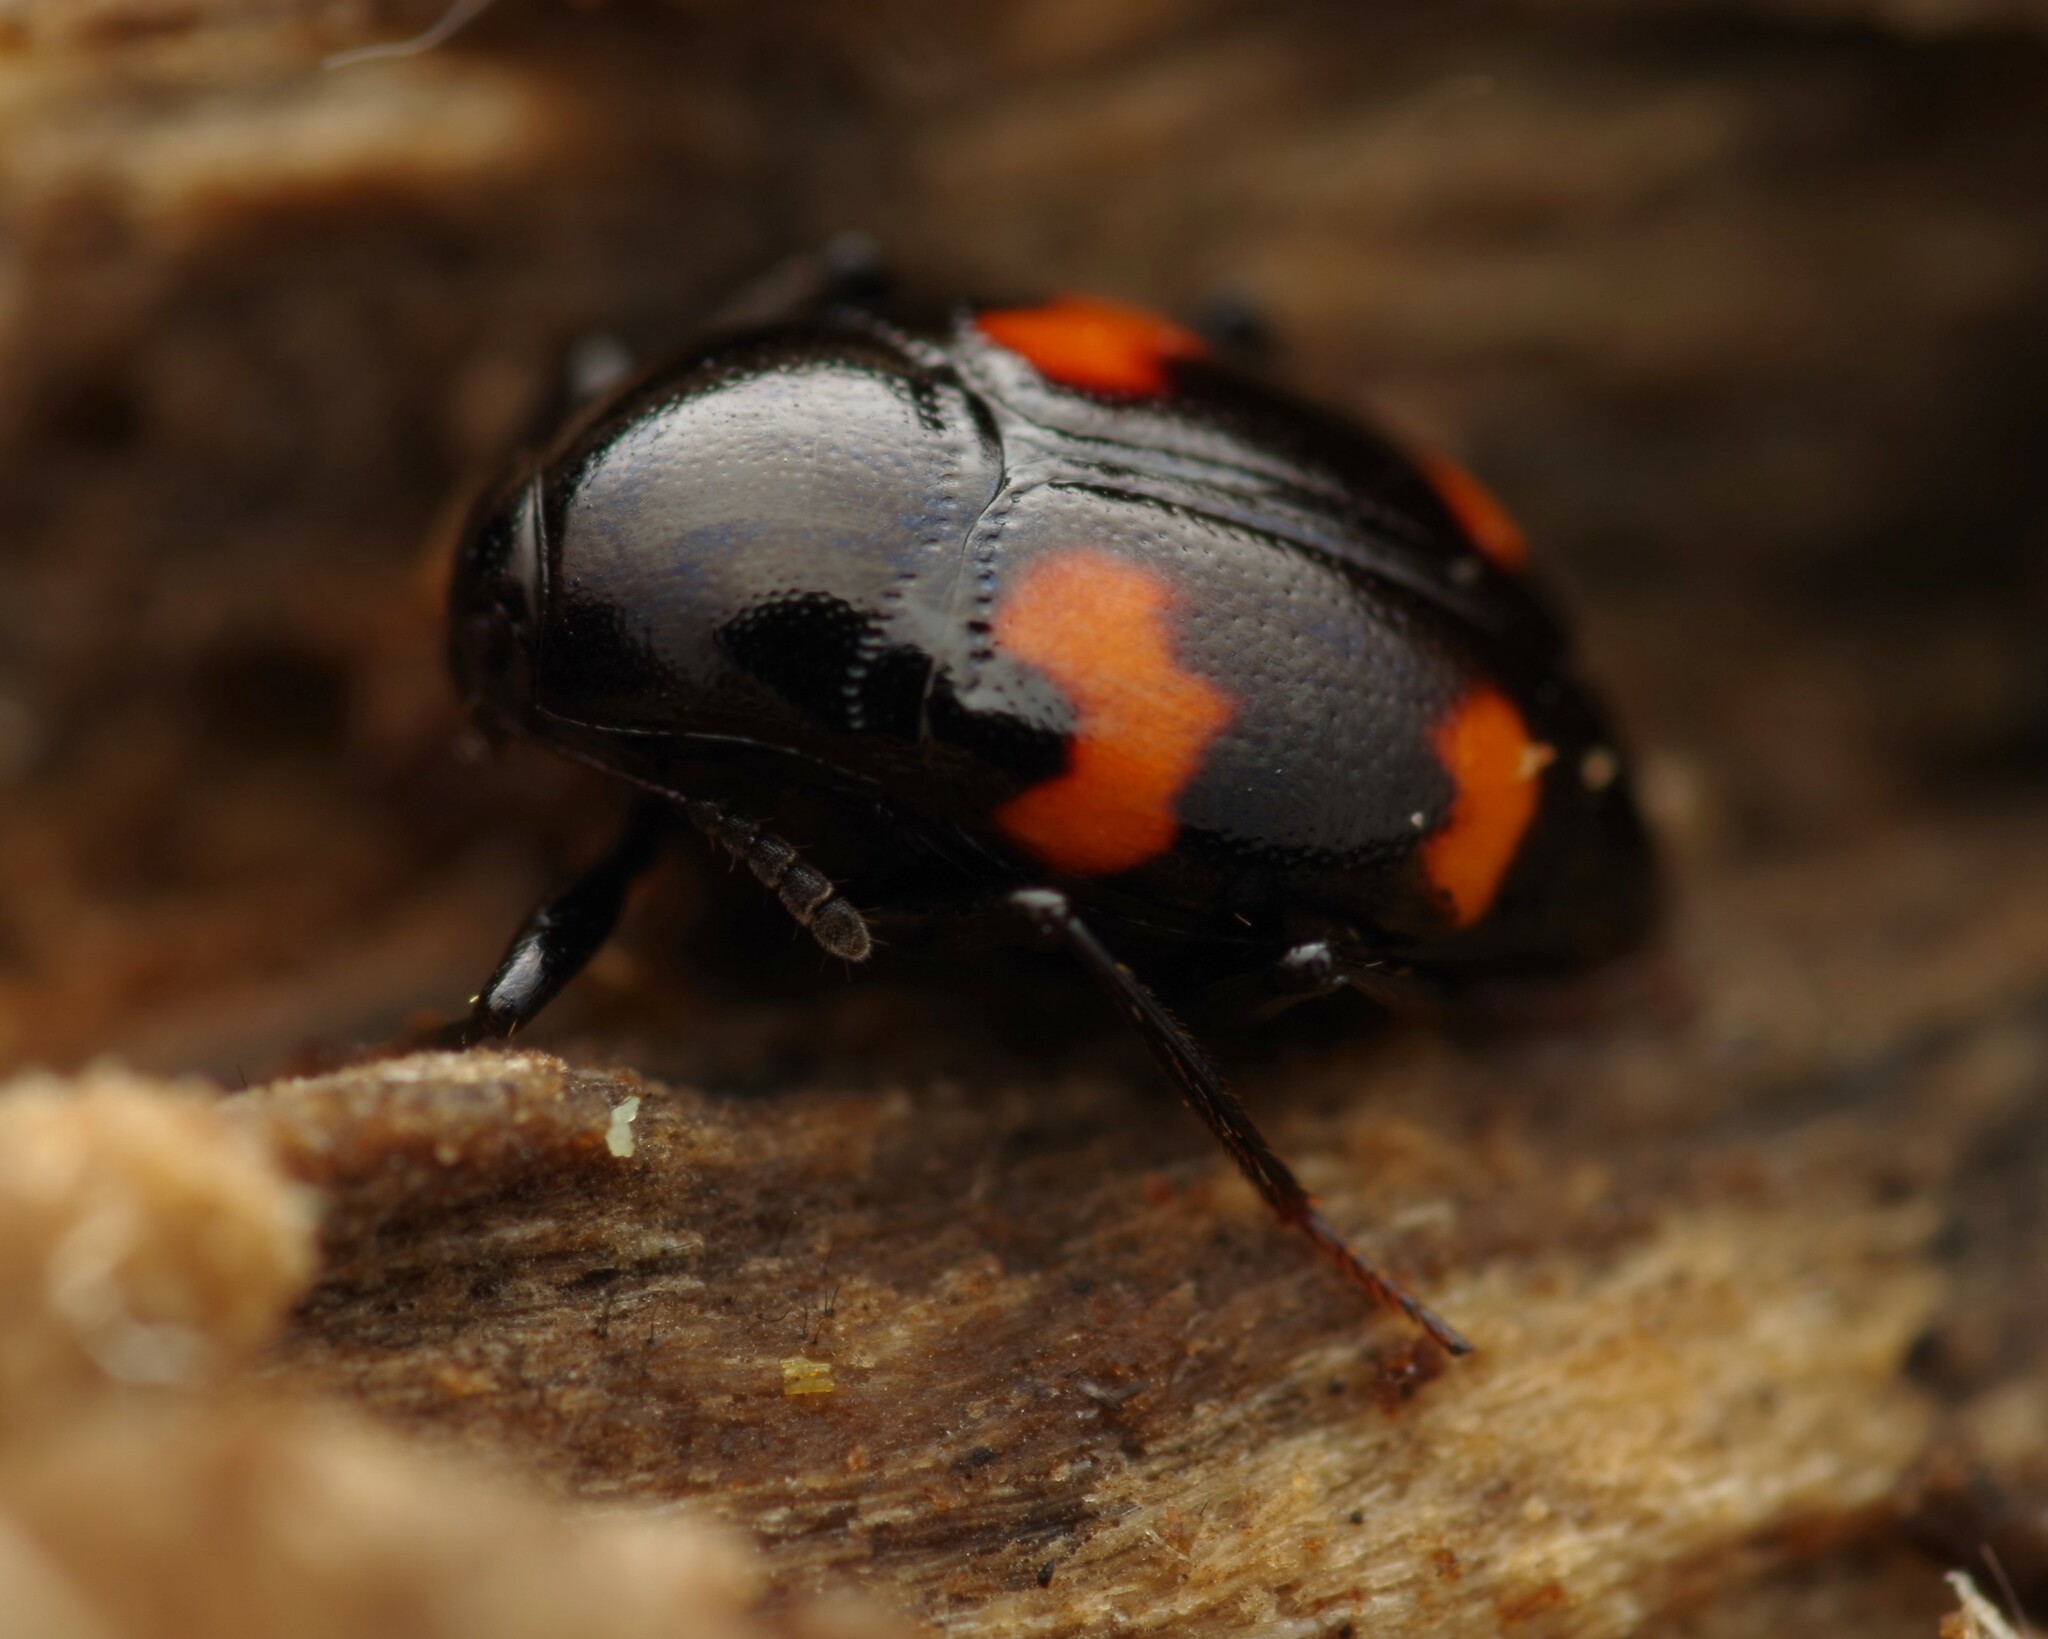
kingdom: Animalia
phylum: Arthropoda
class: Insecta
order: Coleoptera
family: Staphylinidae
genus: Scaphidium
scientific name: Scaphidium quadrimaculatum
